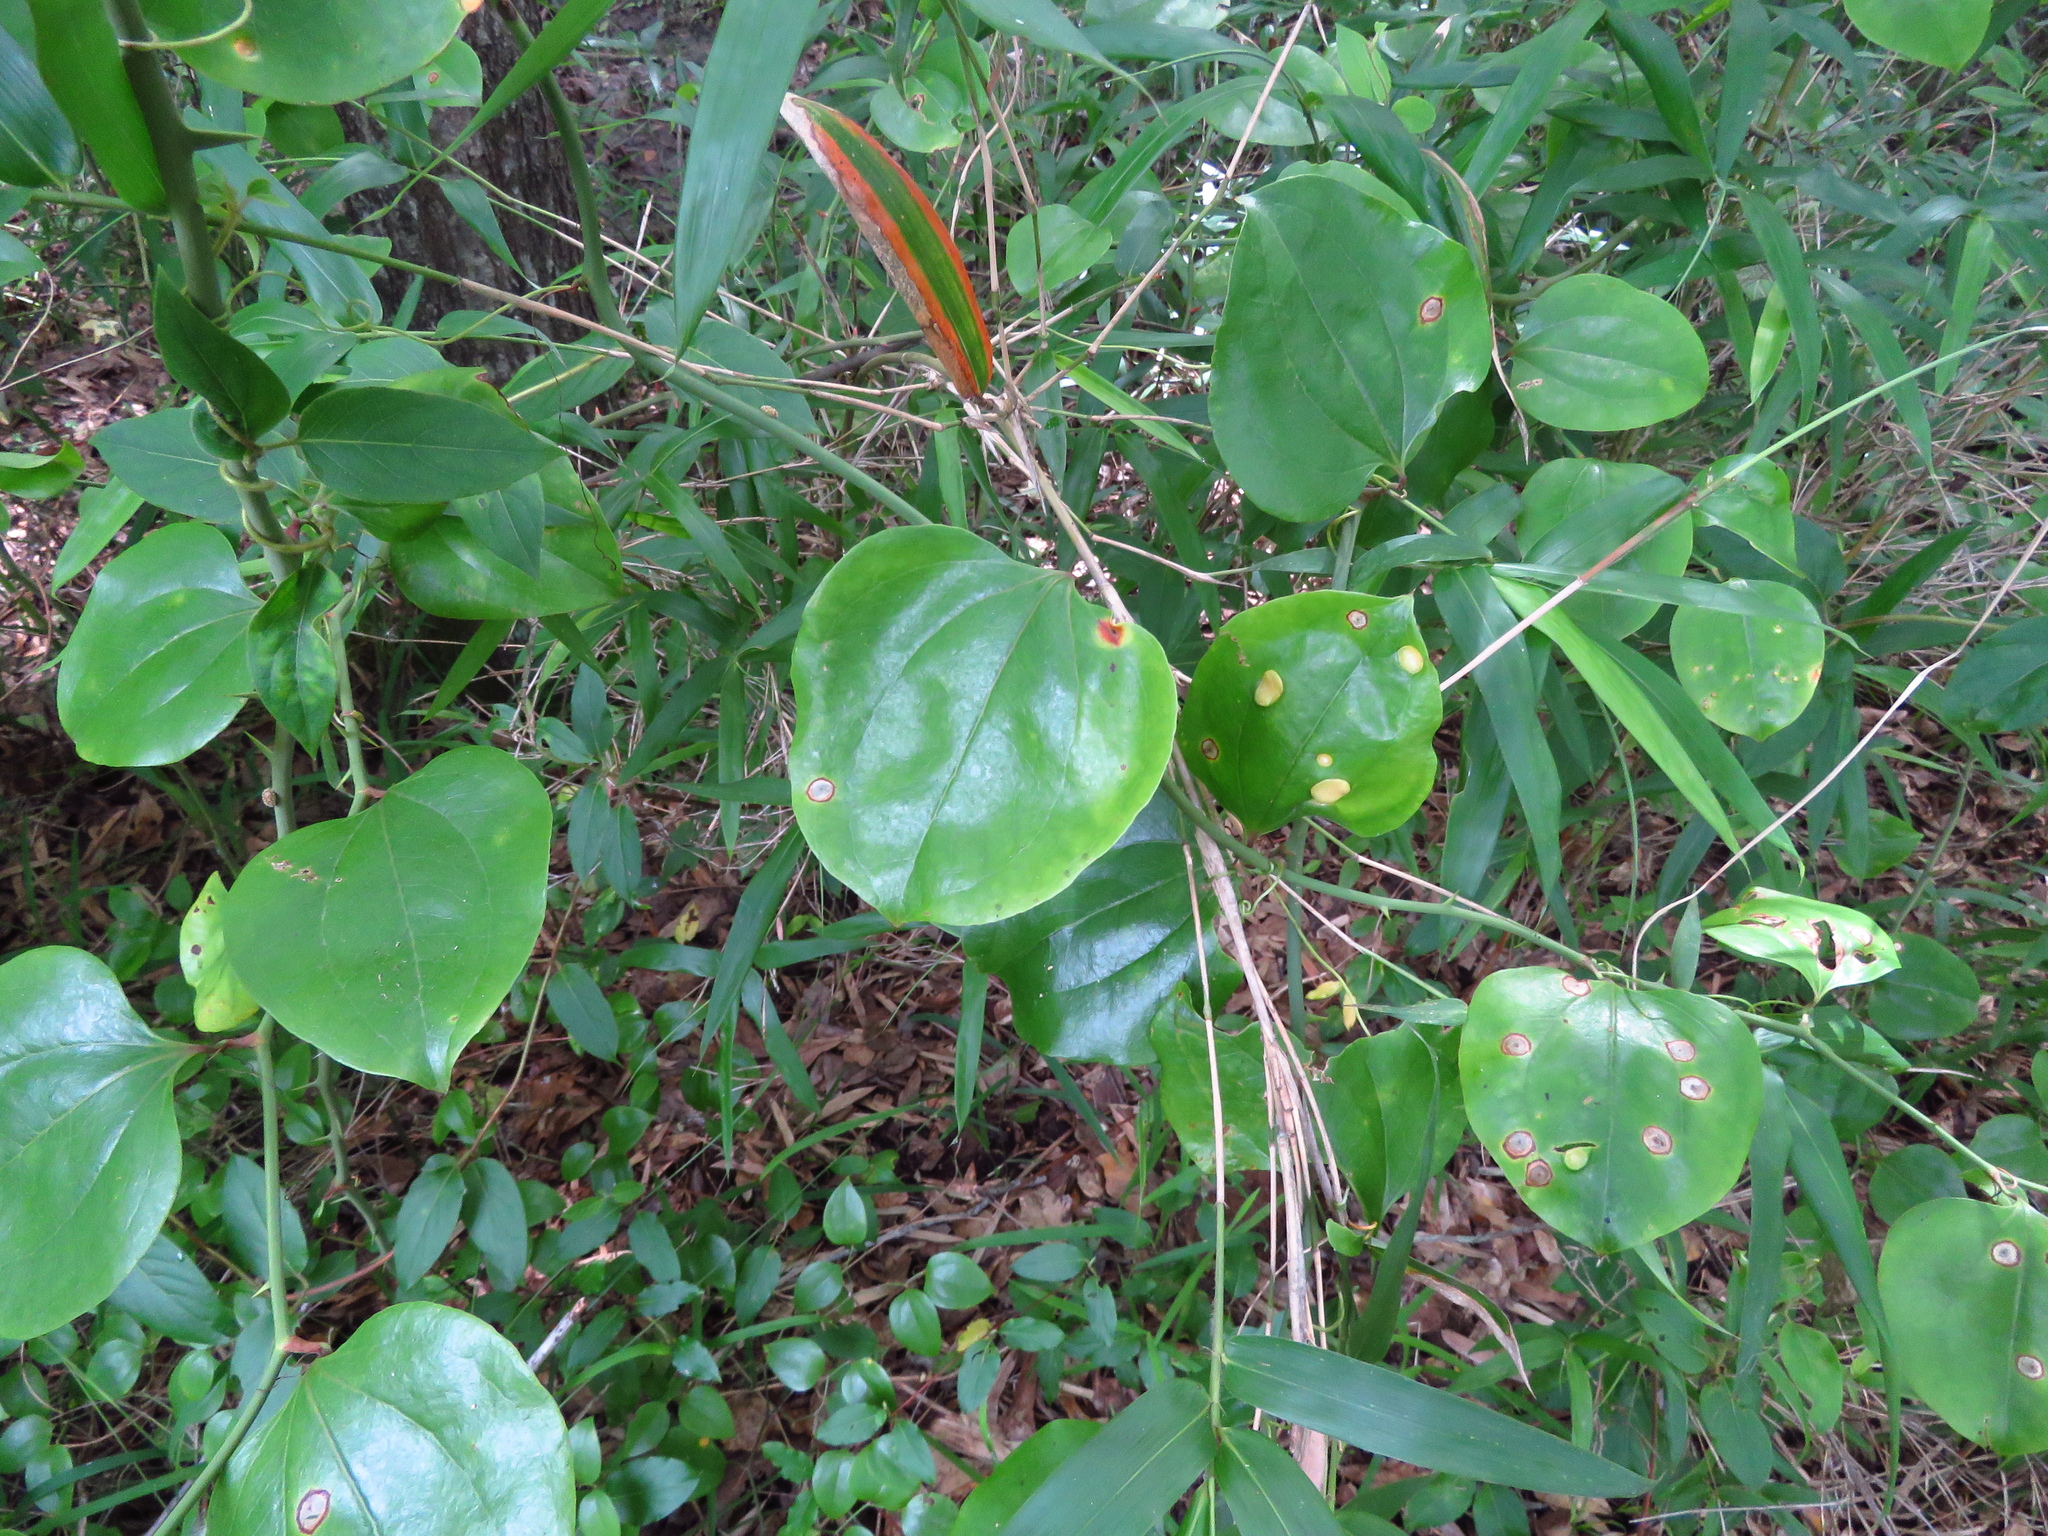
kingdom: Plantae
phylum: Tracheophyta
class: Liliopsida
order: Liliales
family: Smilacaceae
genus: Smilax
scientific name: Smilax rotundifolia
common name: Bullbriar
